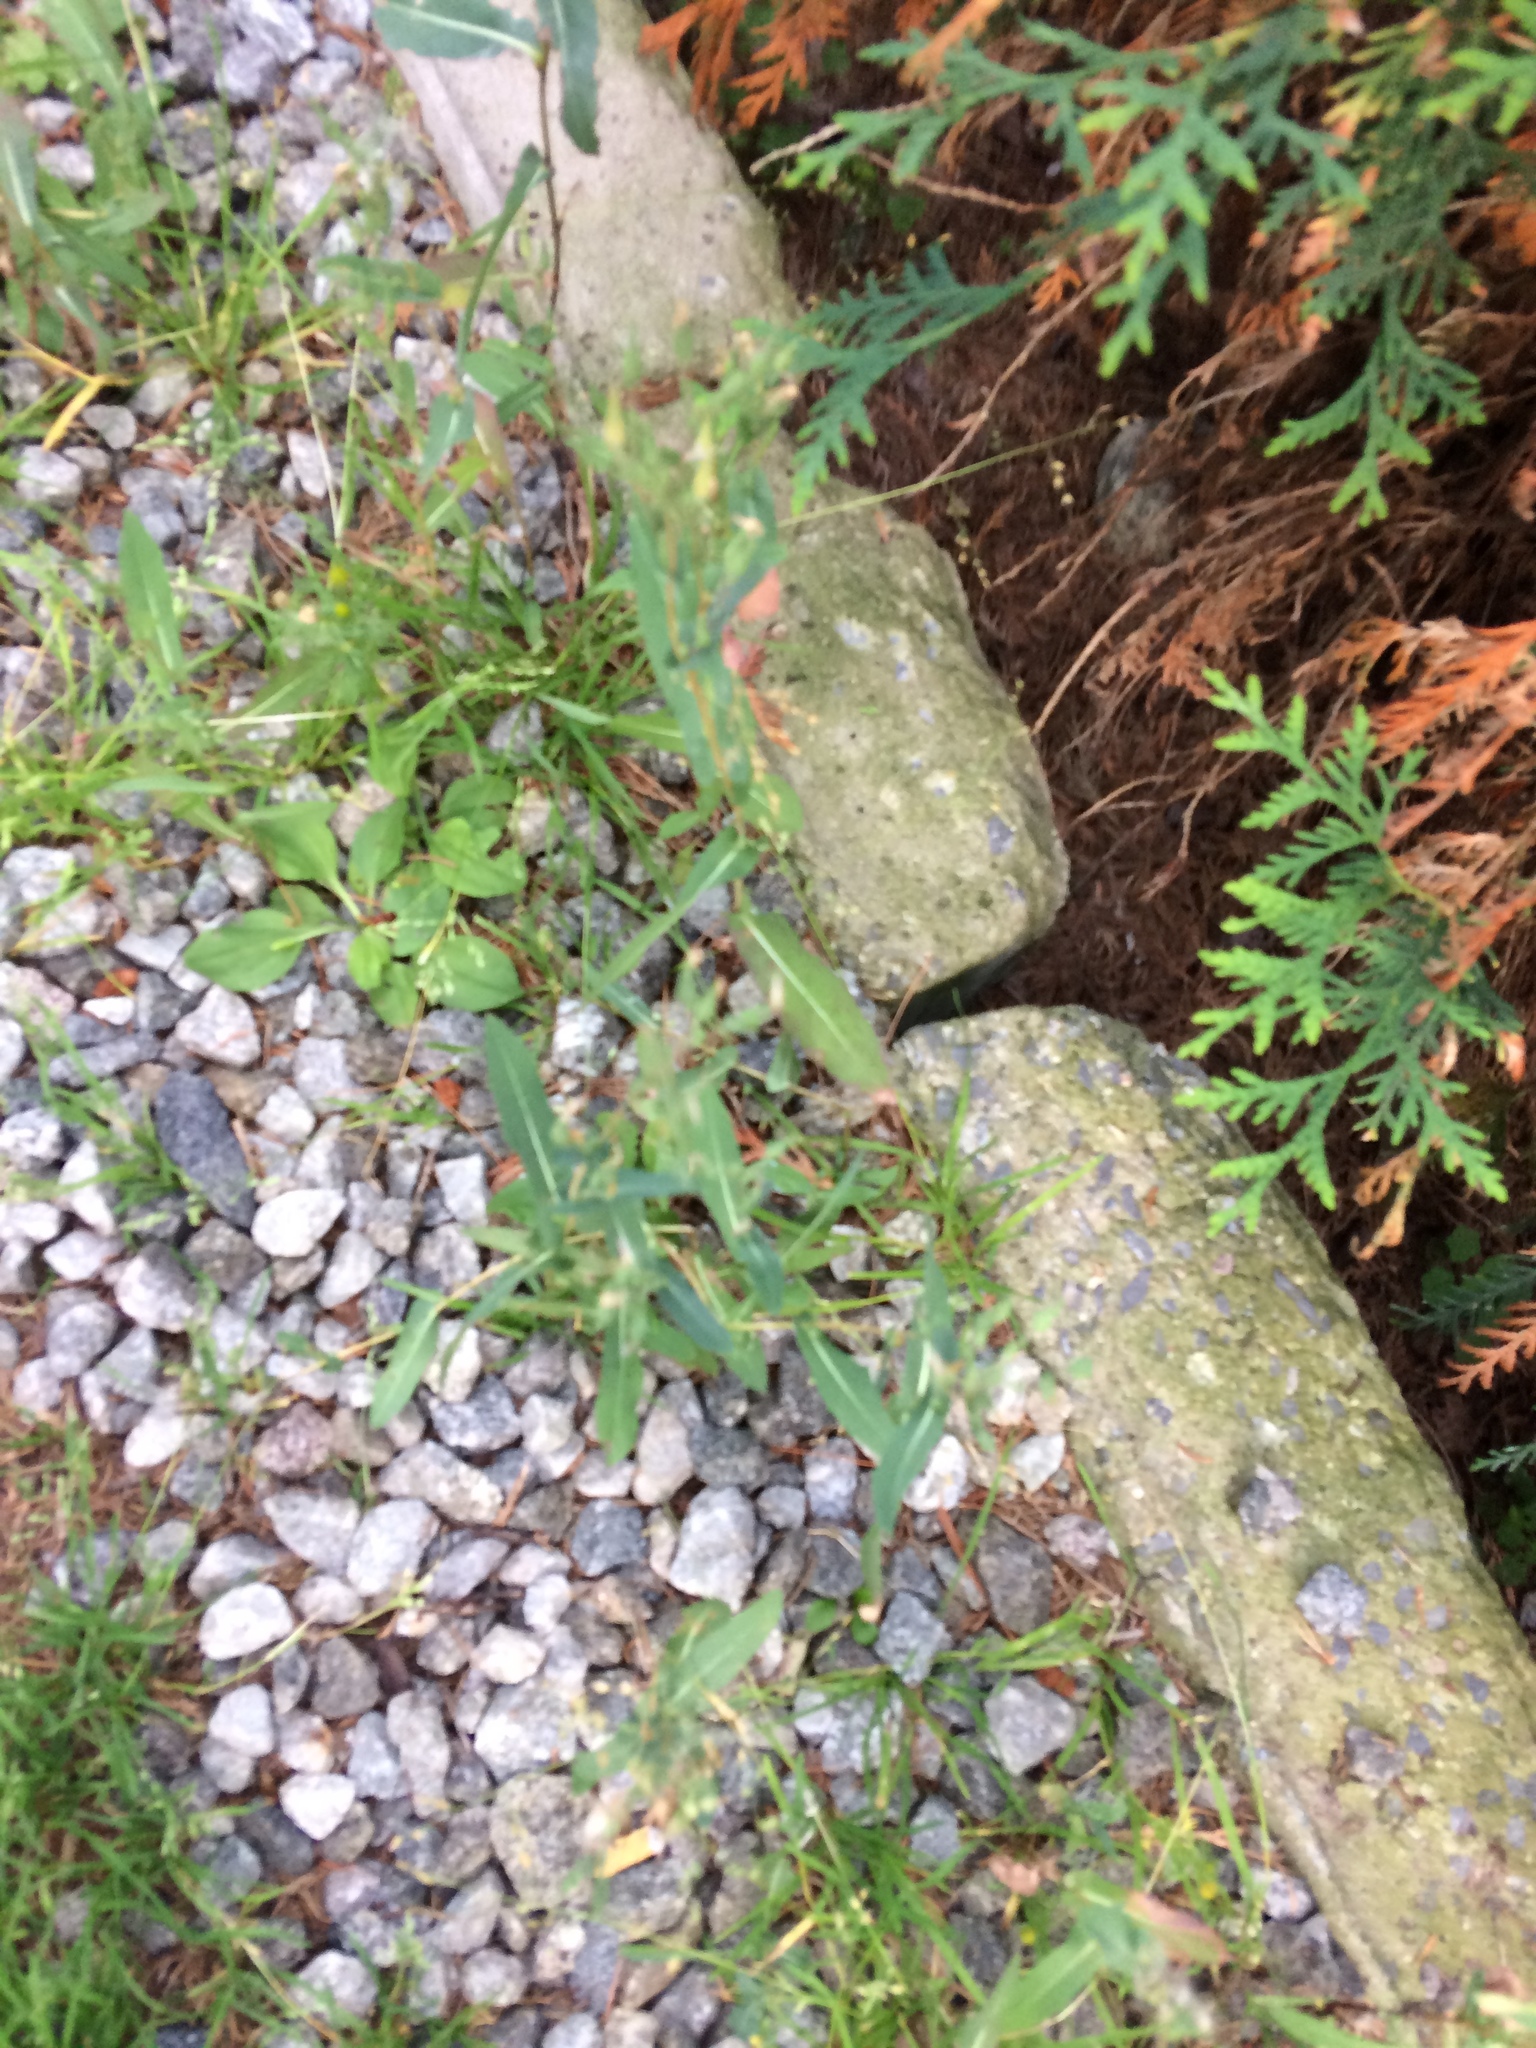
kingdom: Plantae
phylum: Tracheophyta
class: Magnoliopsida
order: Asterales
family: Asteraceae
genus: Lactuca
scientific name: Lactuca serriola
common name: Prickly lettuce
